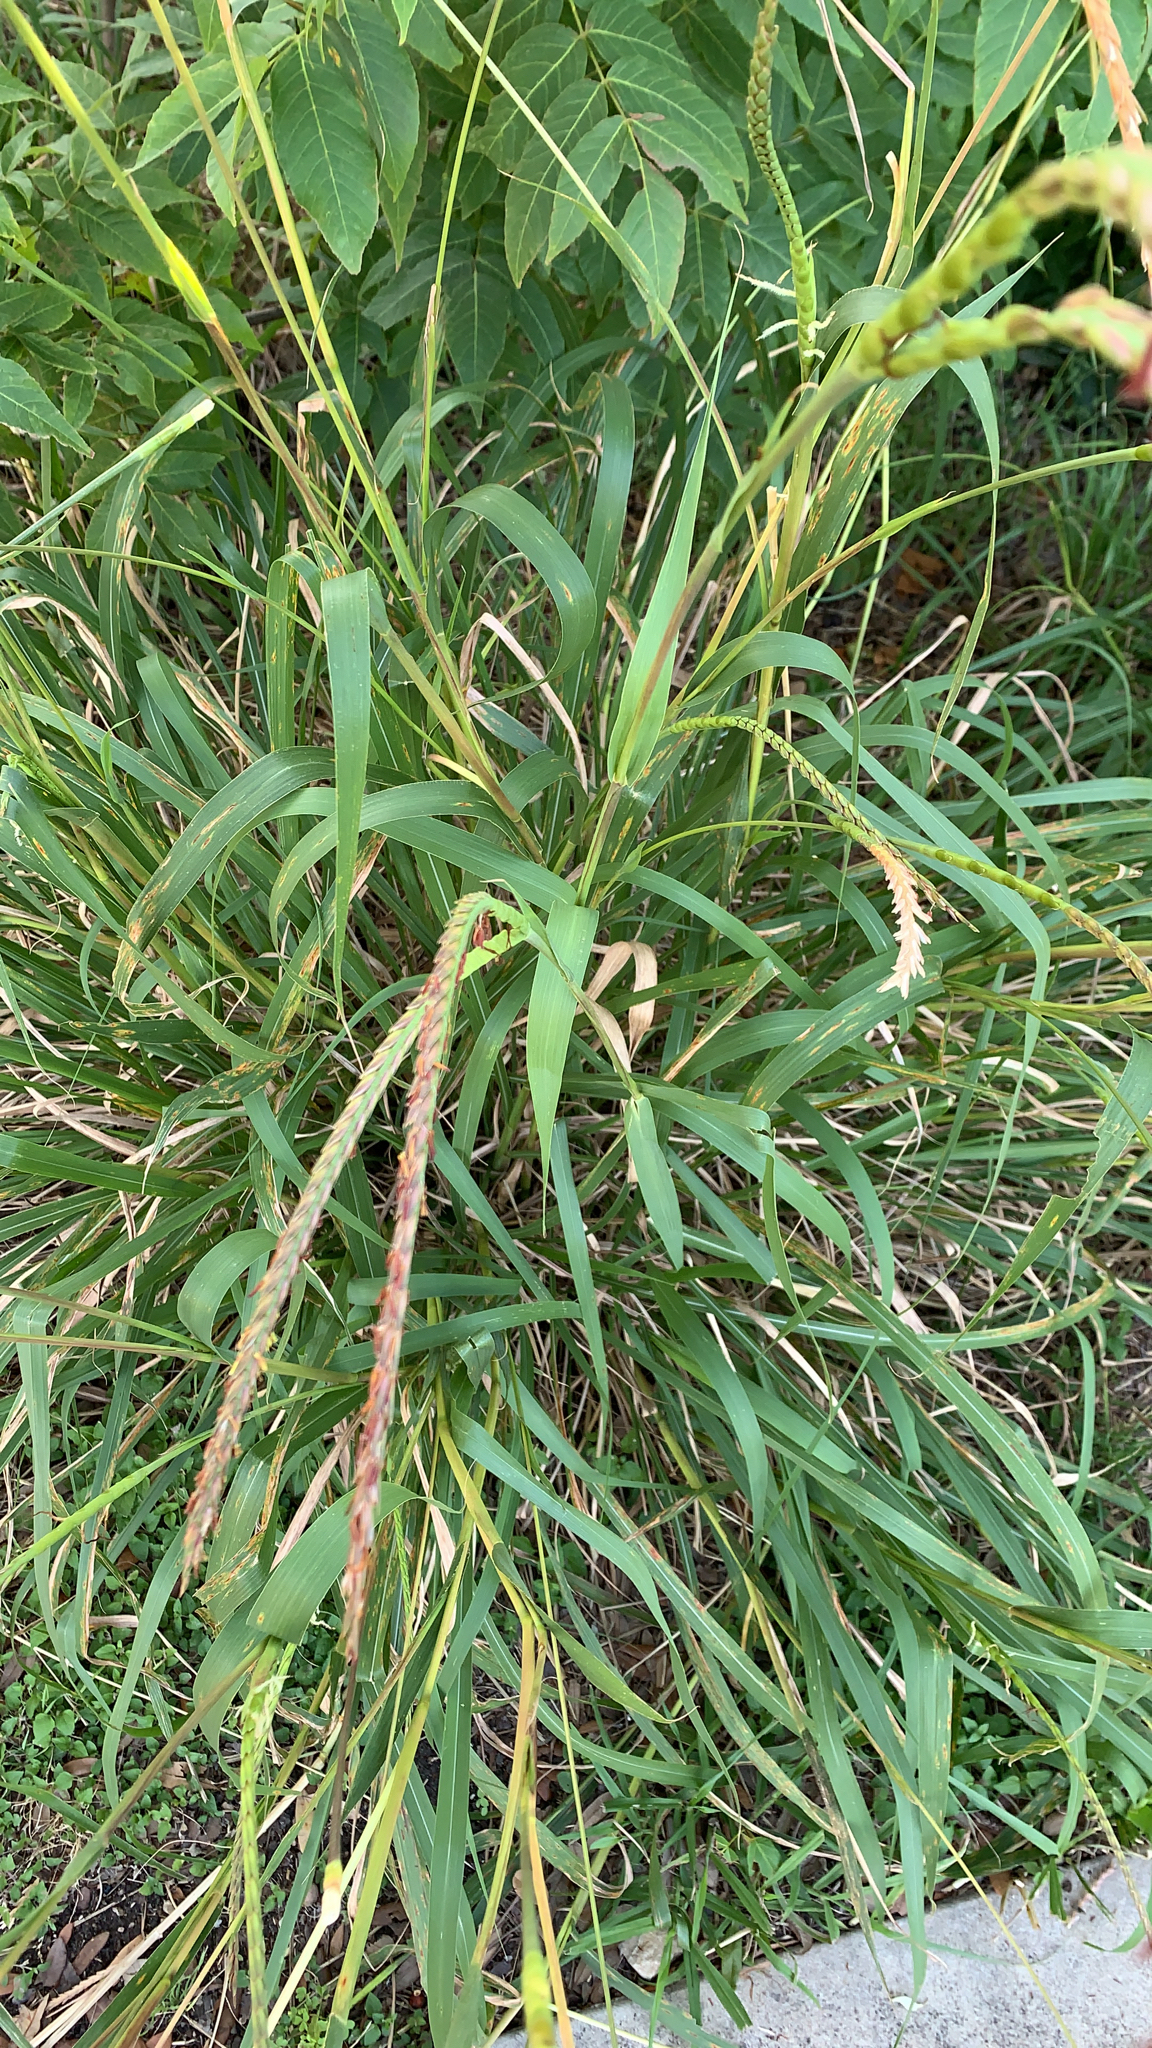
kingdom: Plantae
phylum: Tracheophyta
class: Liliopsida
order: Poales
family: Poaceae
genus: Tripsacum
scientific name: Tripsacum dactyloides
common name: Buffalo-grass
